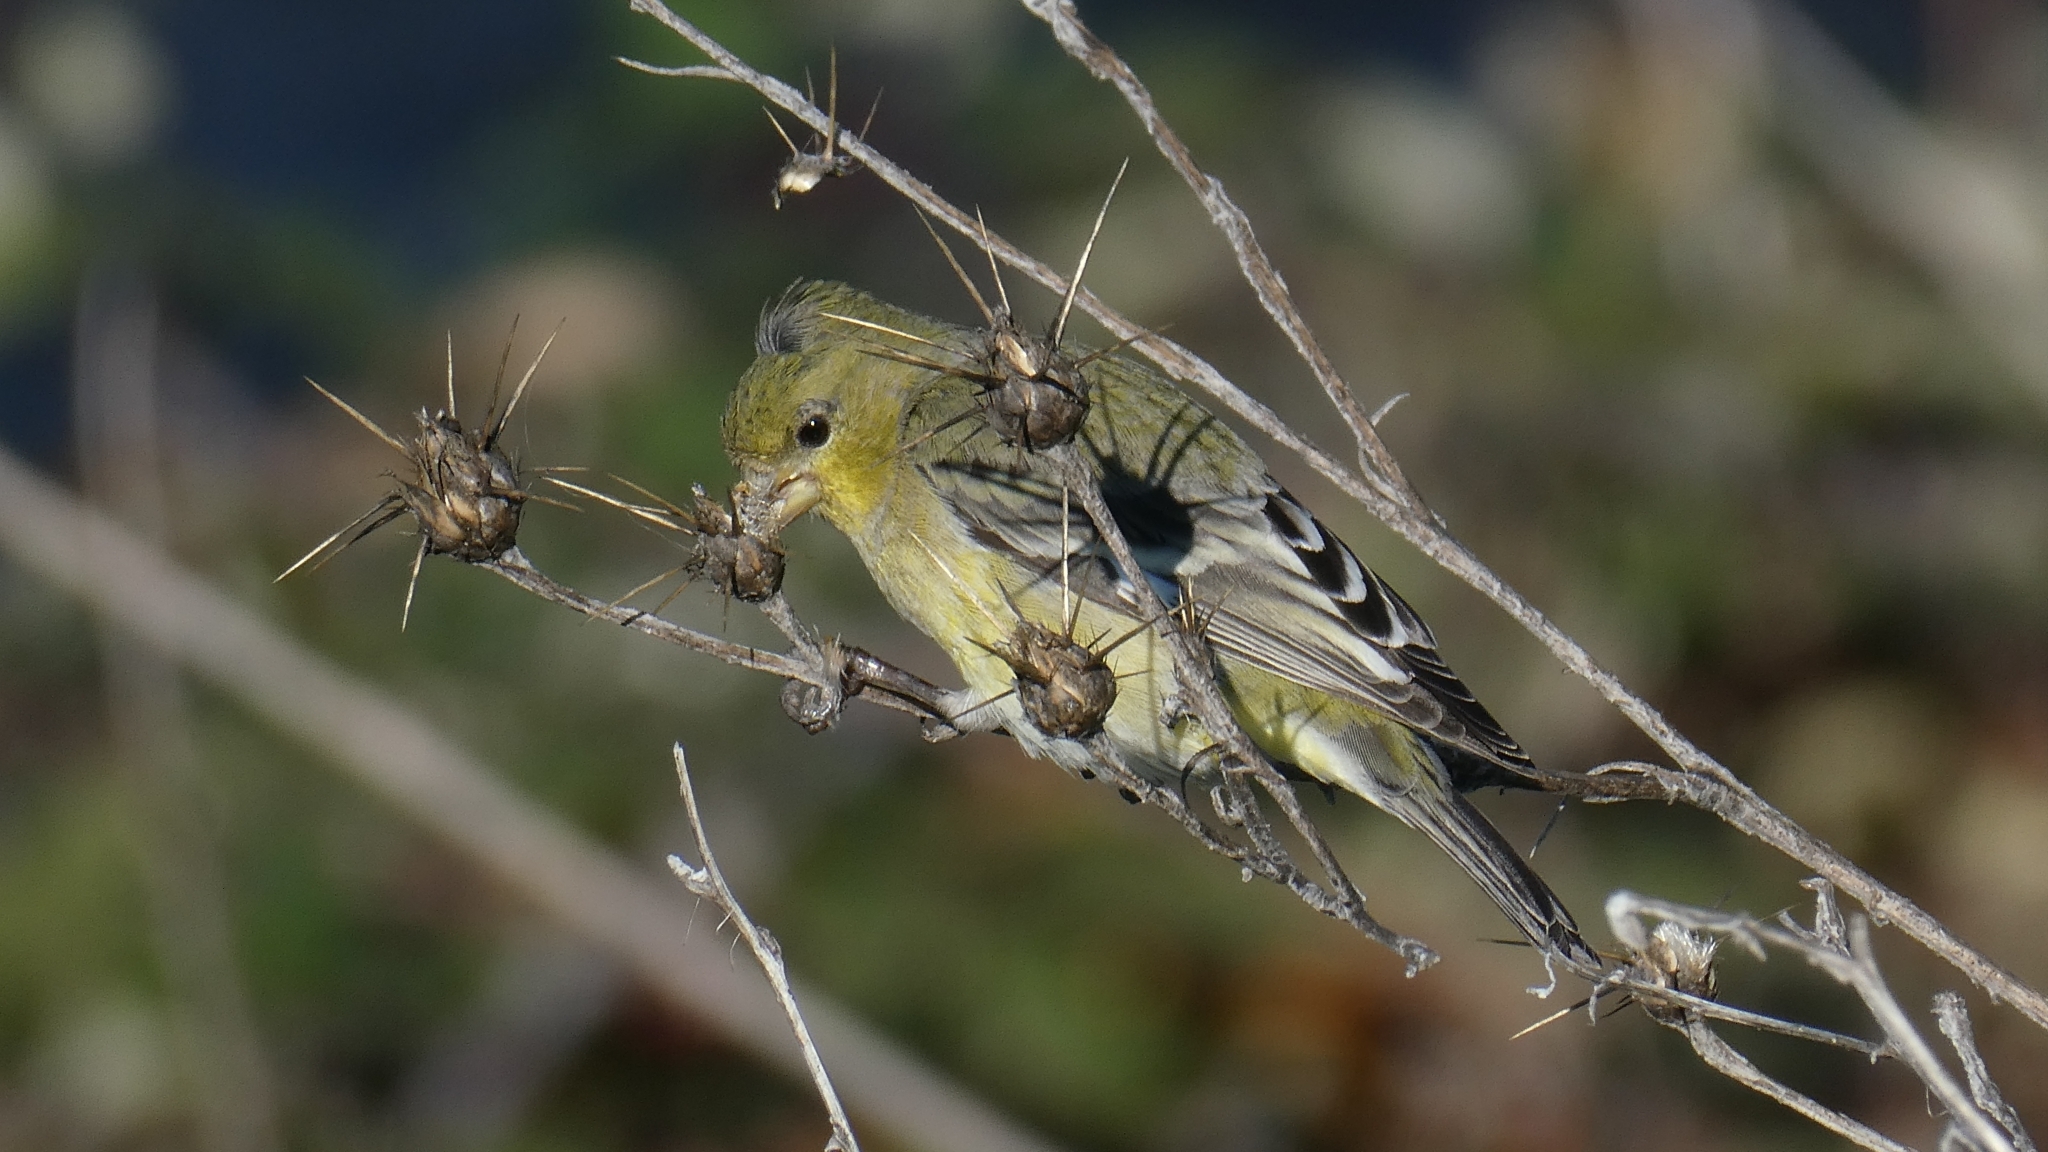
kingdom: Animalia
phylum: Chordata
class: Aves
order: Passeriformes
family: Fringillidae
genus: Spinus
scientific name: Spinus psaltria
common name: Lesser goldfinch
